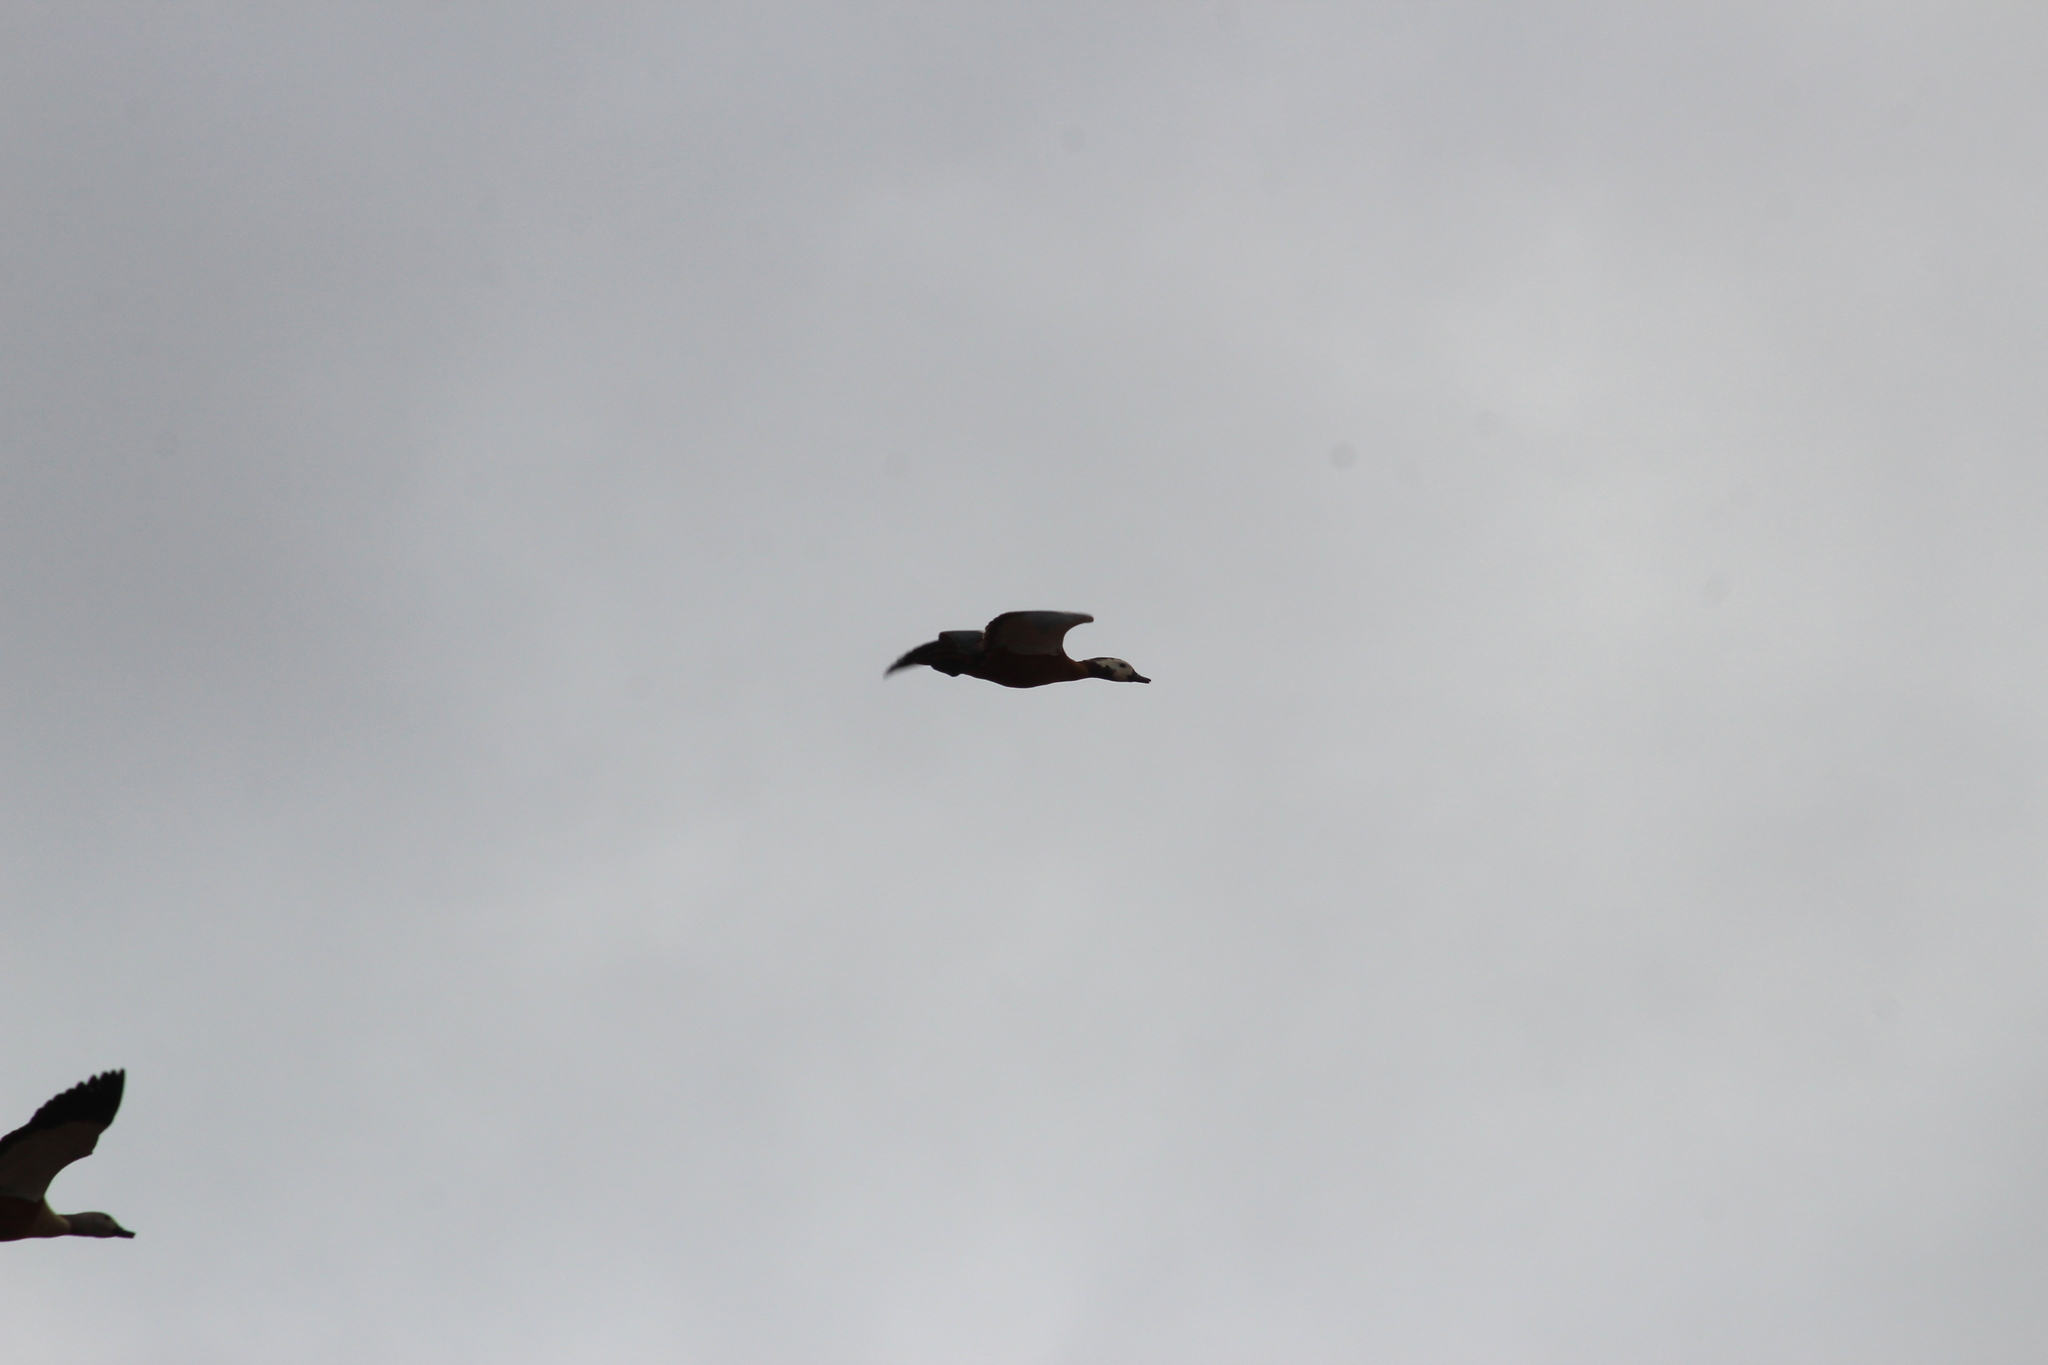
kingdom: Animalia
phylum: Chordata
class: Aves
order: Anseriformes
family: Anatidae
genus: Tadorna
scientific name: Tadorna cana
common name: South african shelduck
